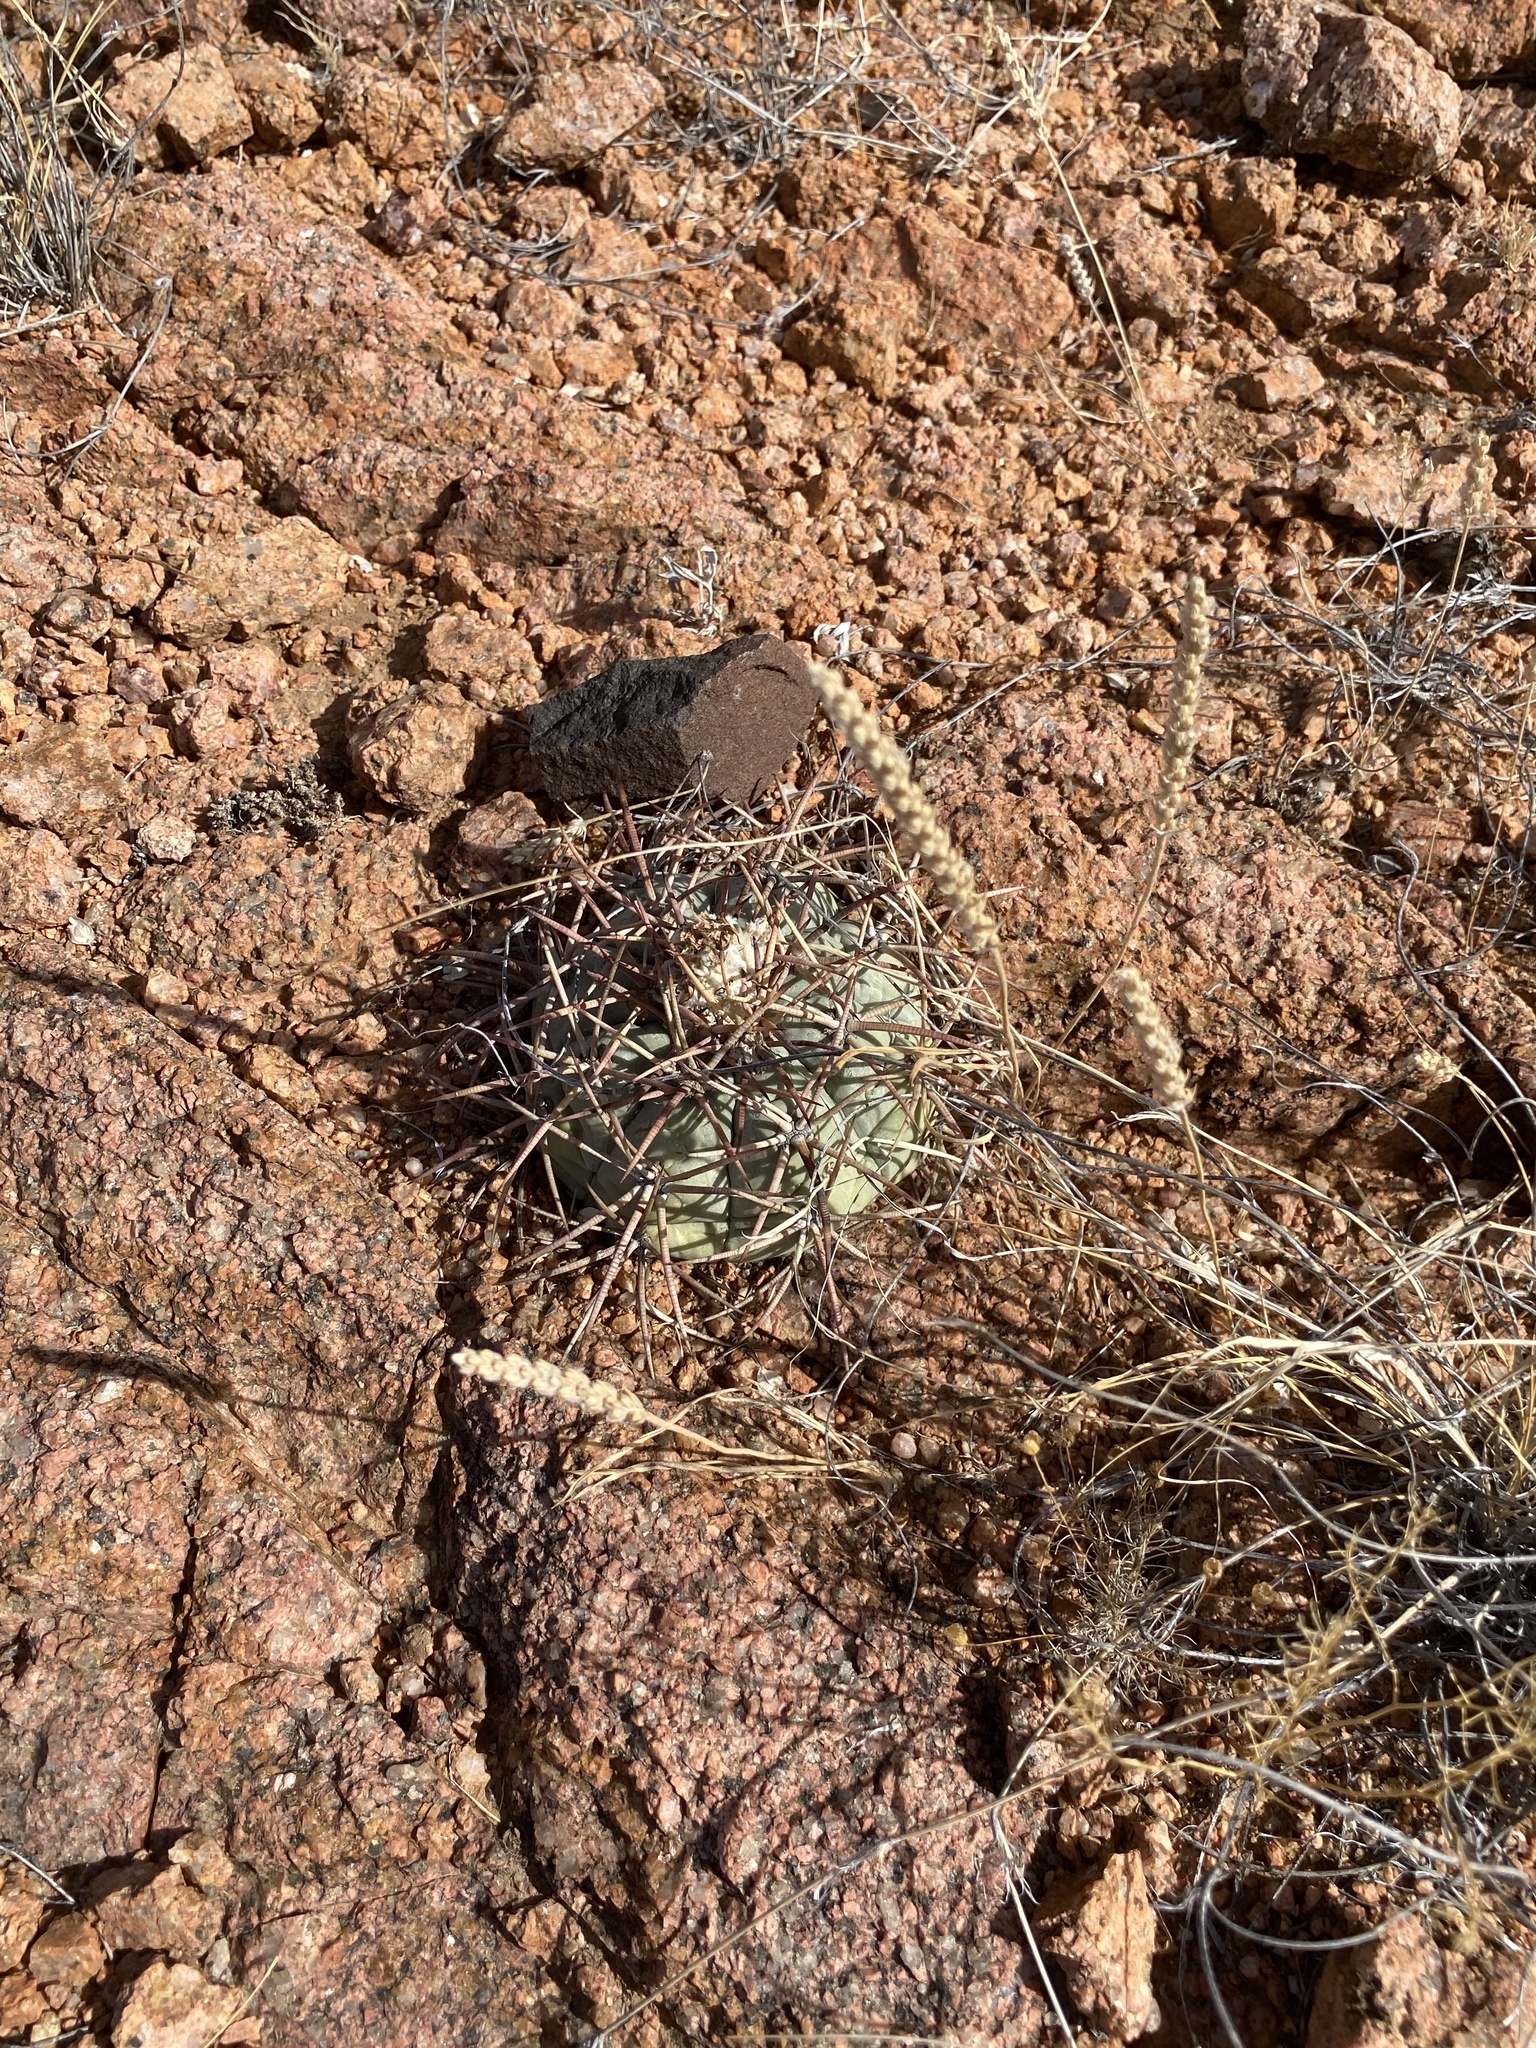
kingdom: Plantae
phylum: Tracheophyta
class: Magnoliopsida
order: Caryophyllales
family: Cactaceae
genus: Echinocactus
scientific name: Echinocactus horizonthalonius
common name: Devilshead
